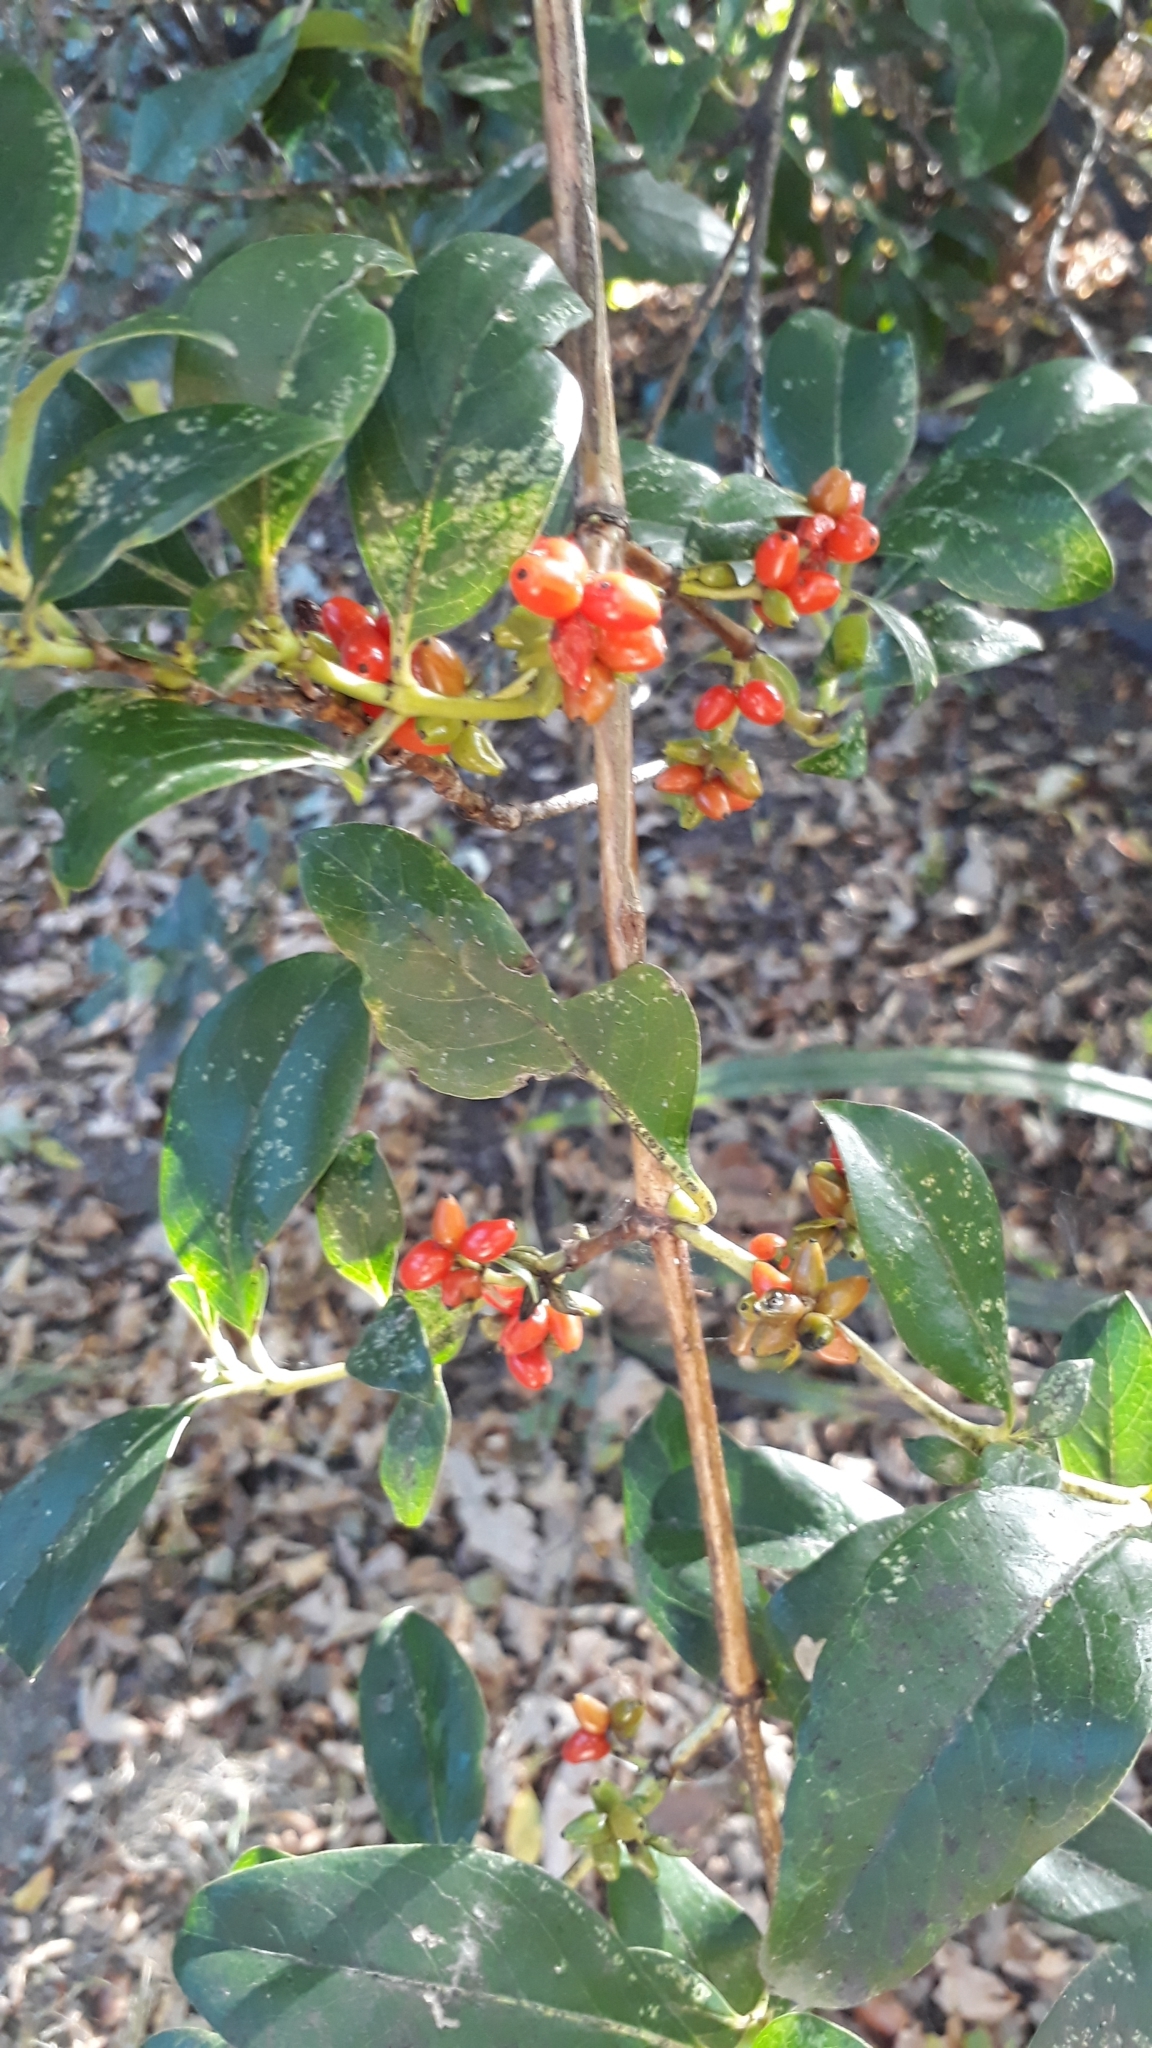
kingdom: Plantae
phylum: Tracheophyta
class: Magnoliopsida
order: Gentianales
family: Rubiaceae
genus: Coprosma
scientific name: Coprosma robusta
